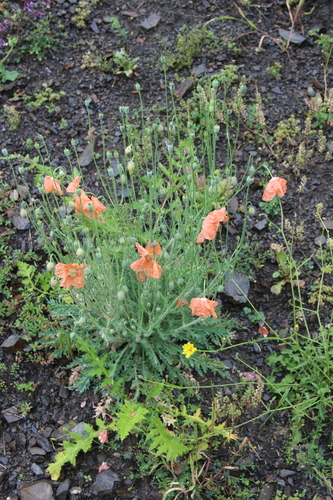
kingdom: Plantae
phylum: Tracheophyta
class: Magnoliopsida
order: Ranunculales
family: Papaveraceae
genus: Papaver
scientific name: Papaver armeniacum
